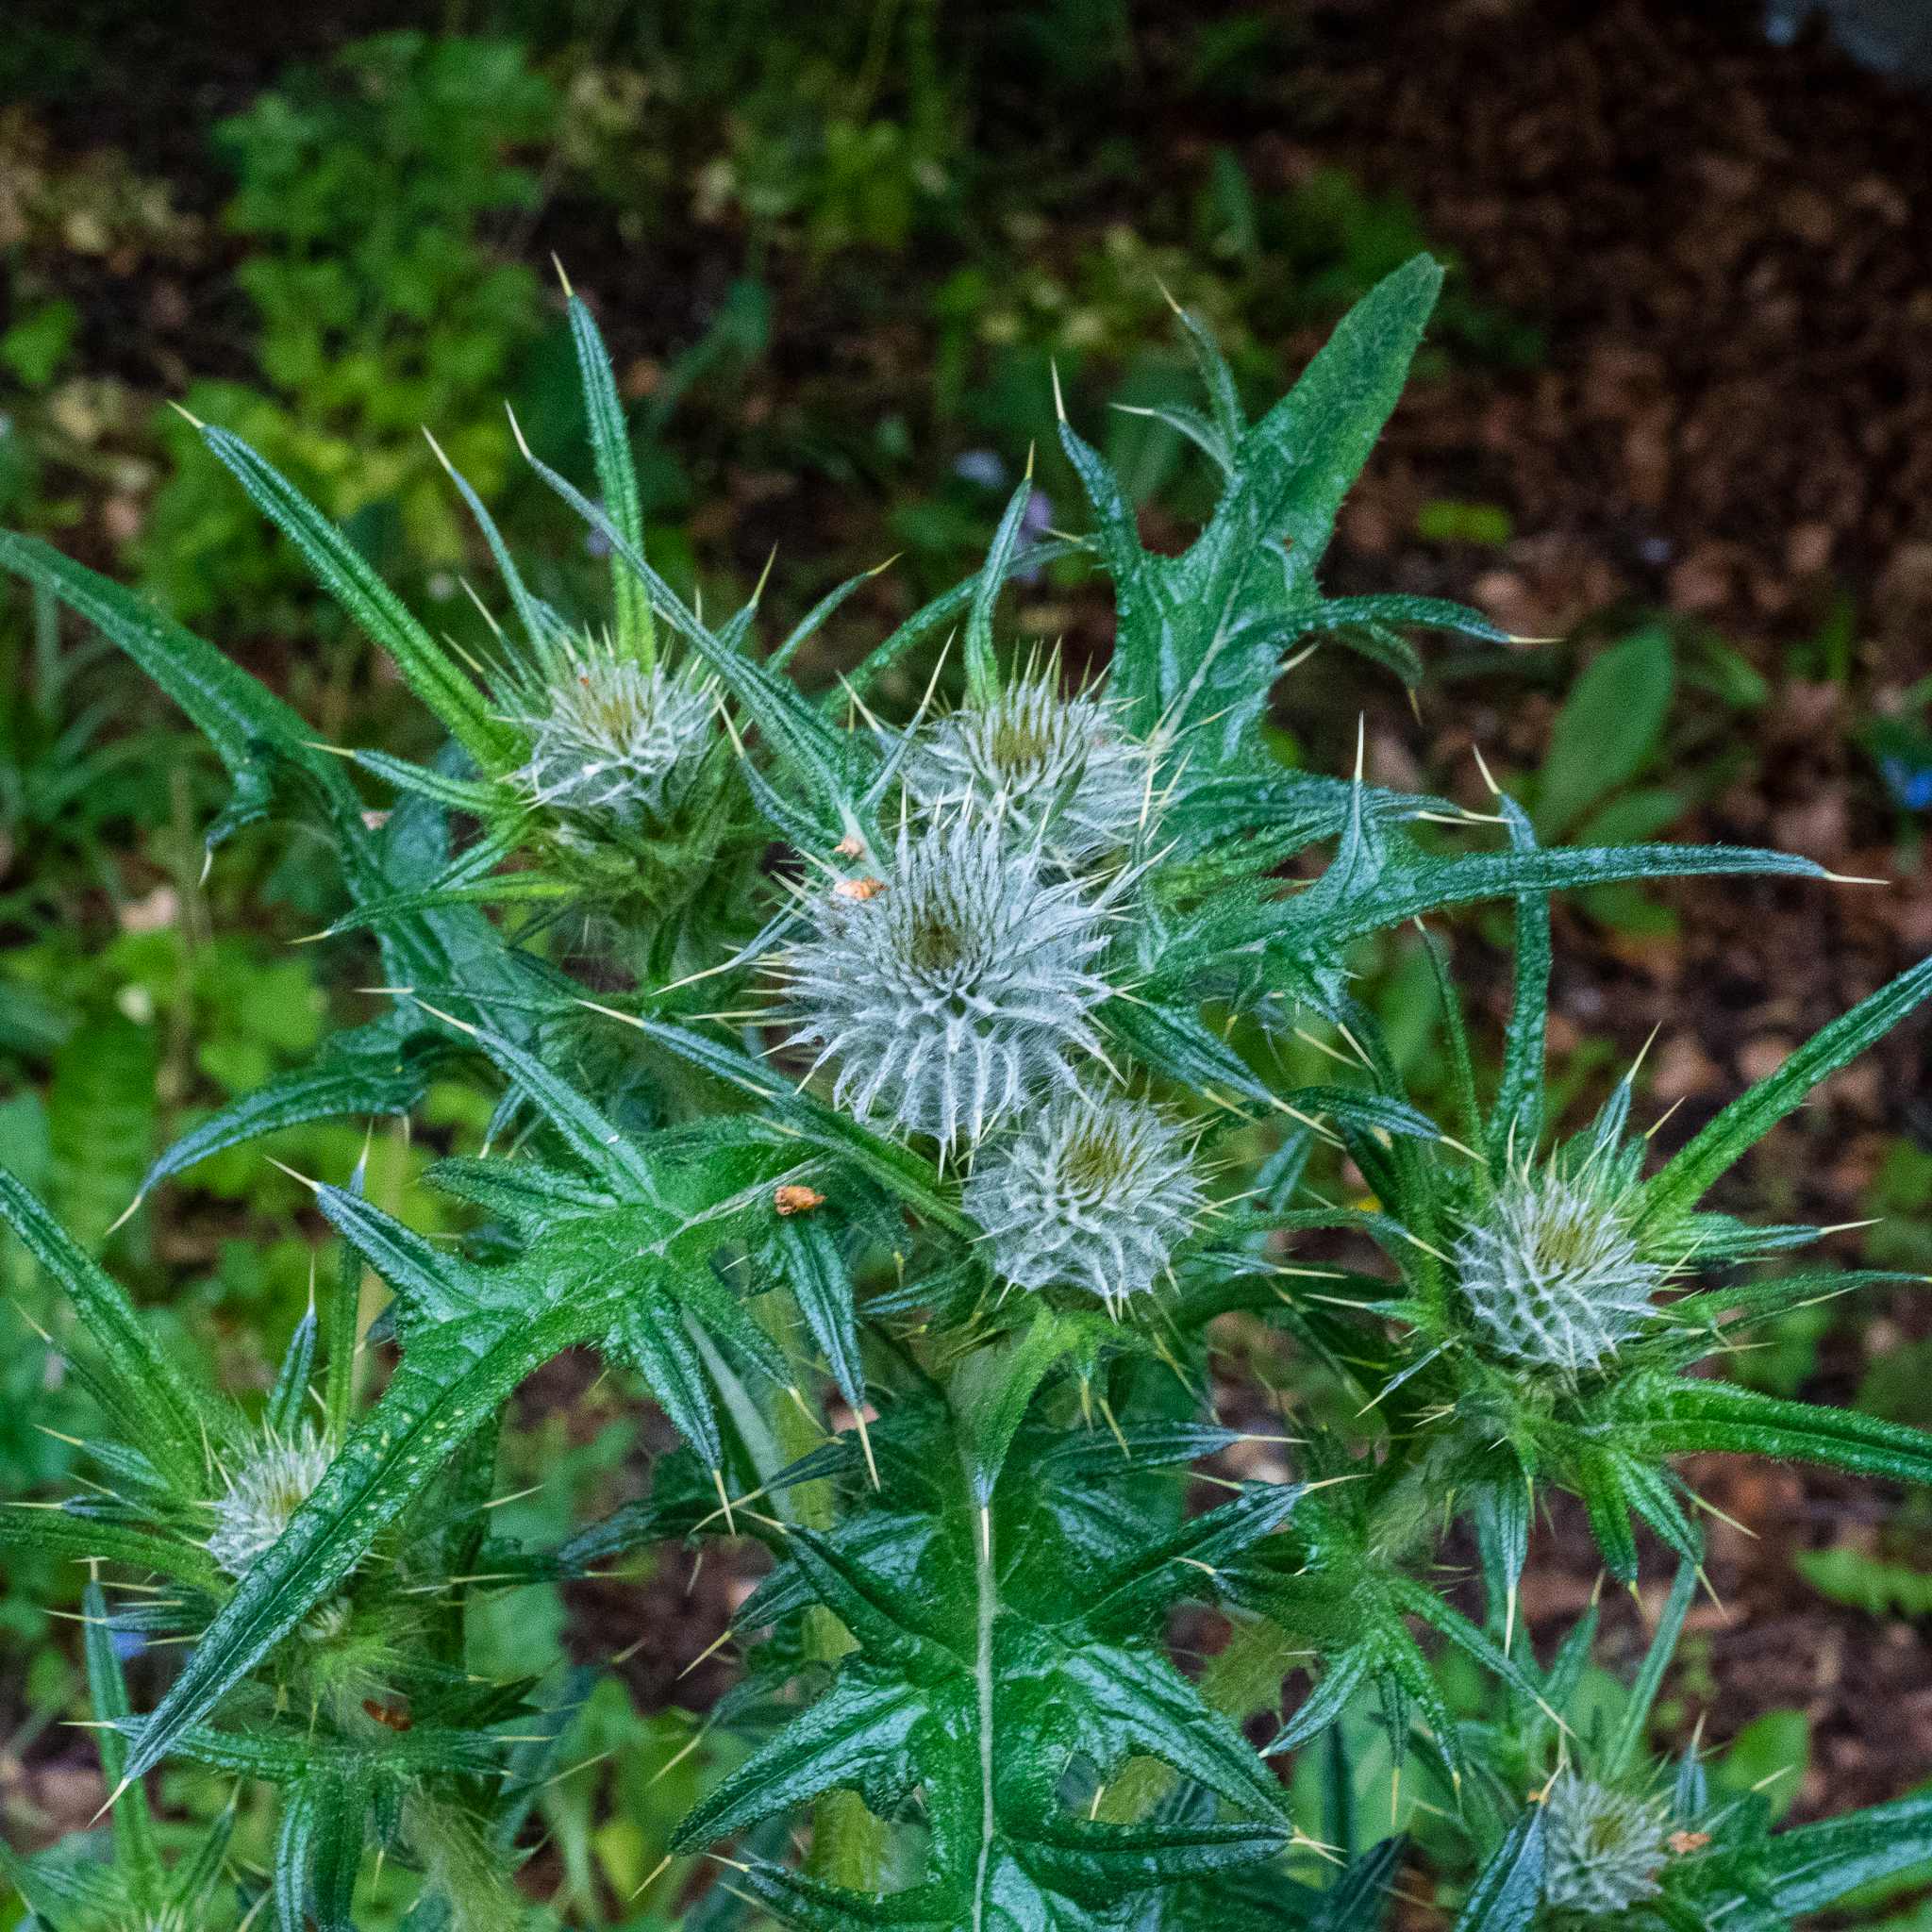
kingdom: Plantae
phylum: Tracheophyta
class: Magnoliopsida
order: Asterales
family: Asteraceae
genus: Cirsium
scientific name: Cirsium vulgare
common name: Bull thistle
